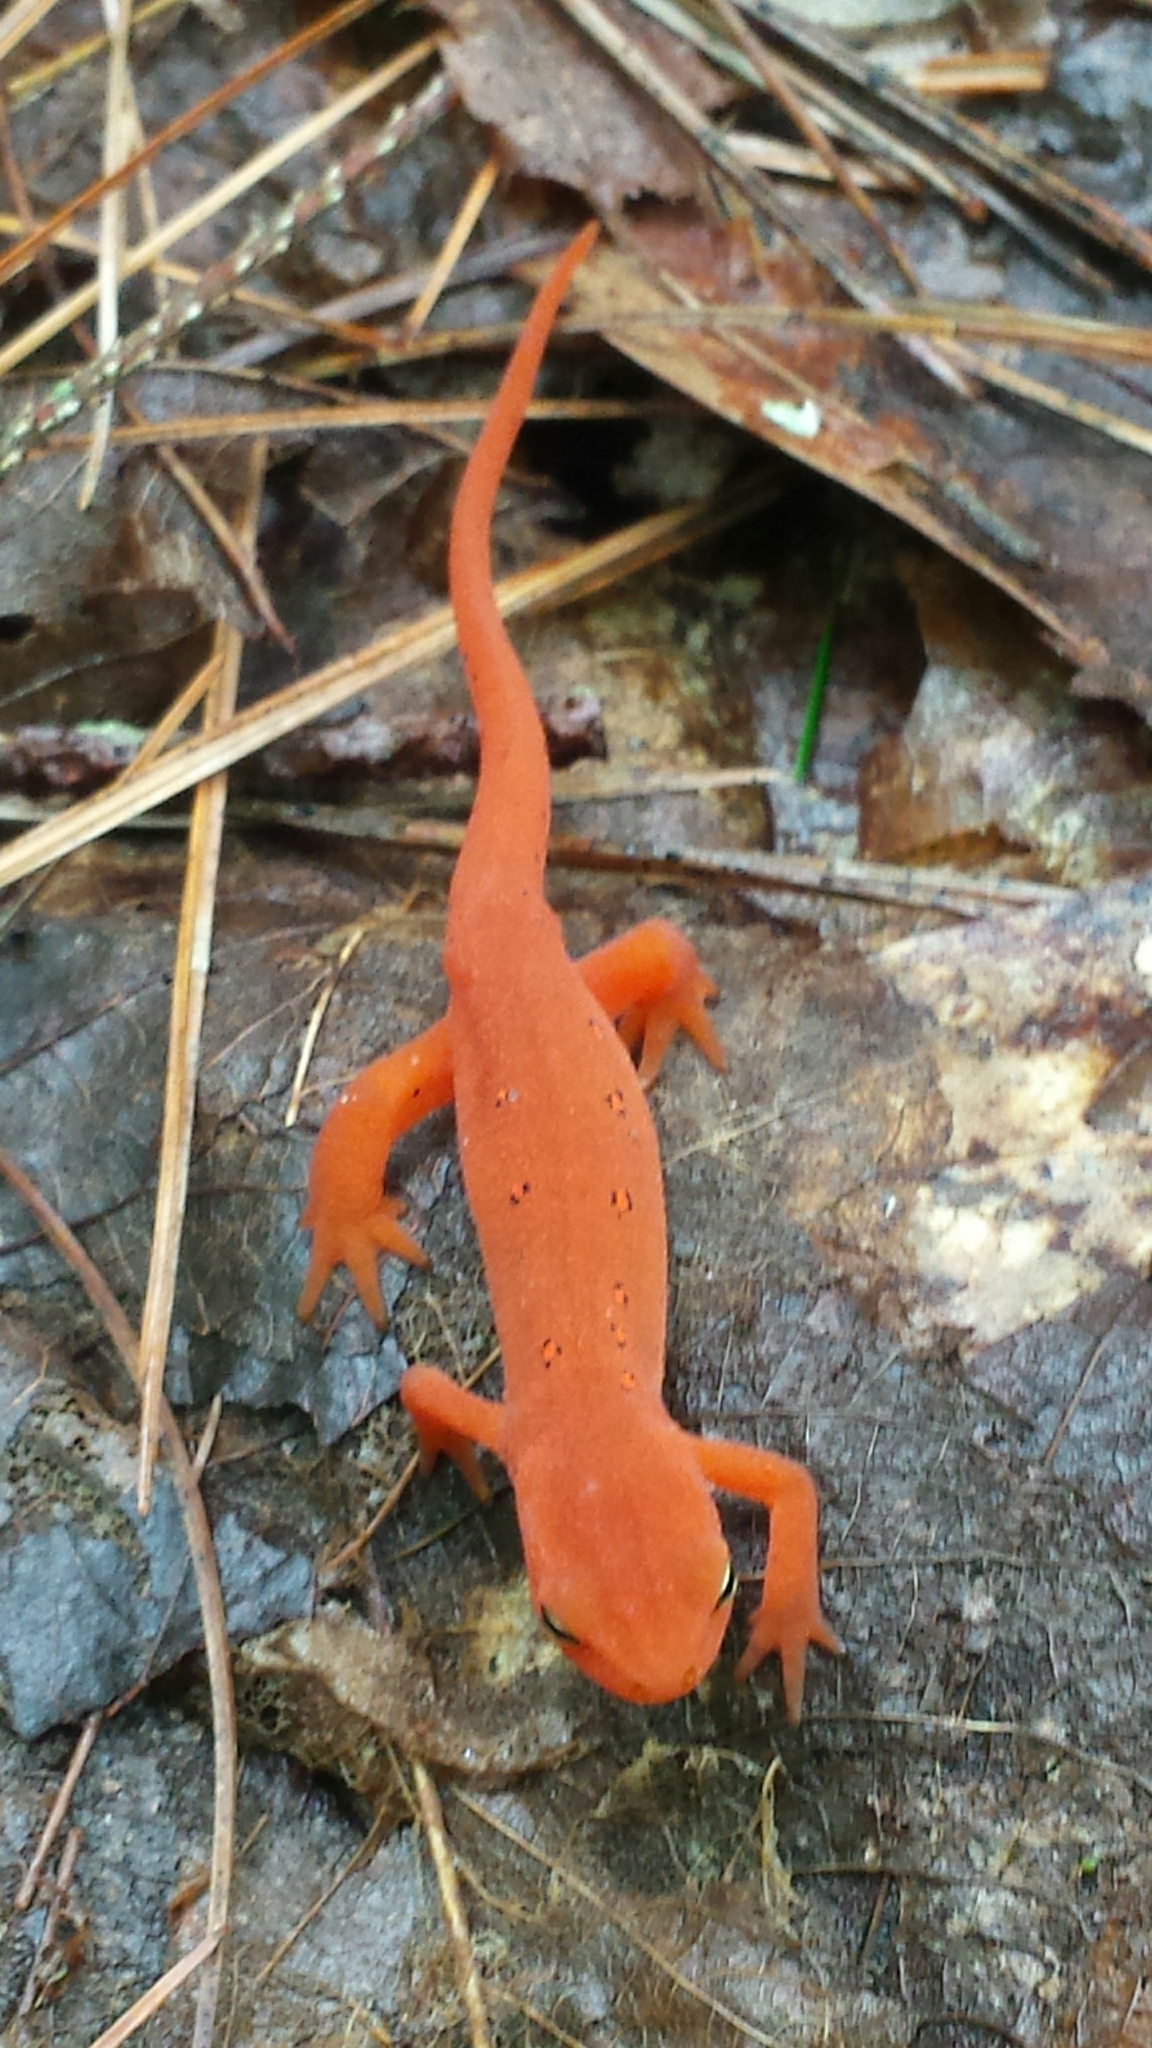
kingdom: Animalia
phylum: Chordata
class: Amphibia
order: Caudata
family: Salamandridae
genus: Notophthalmus
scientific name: Notophthalmus viridescens
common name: Eastern newt
